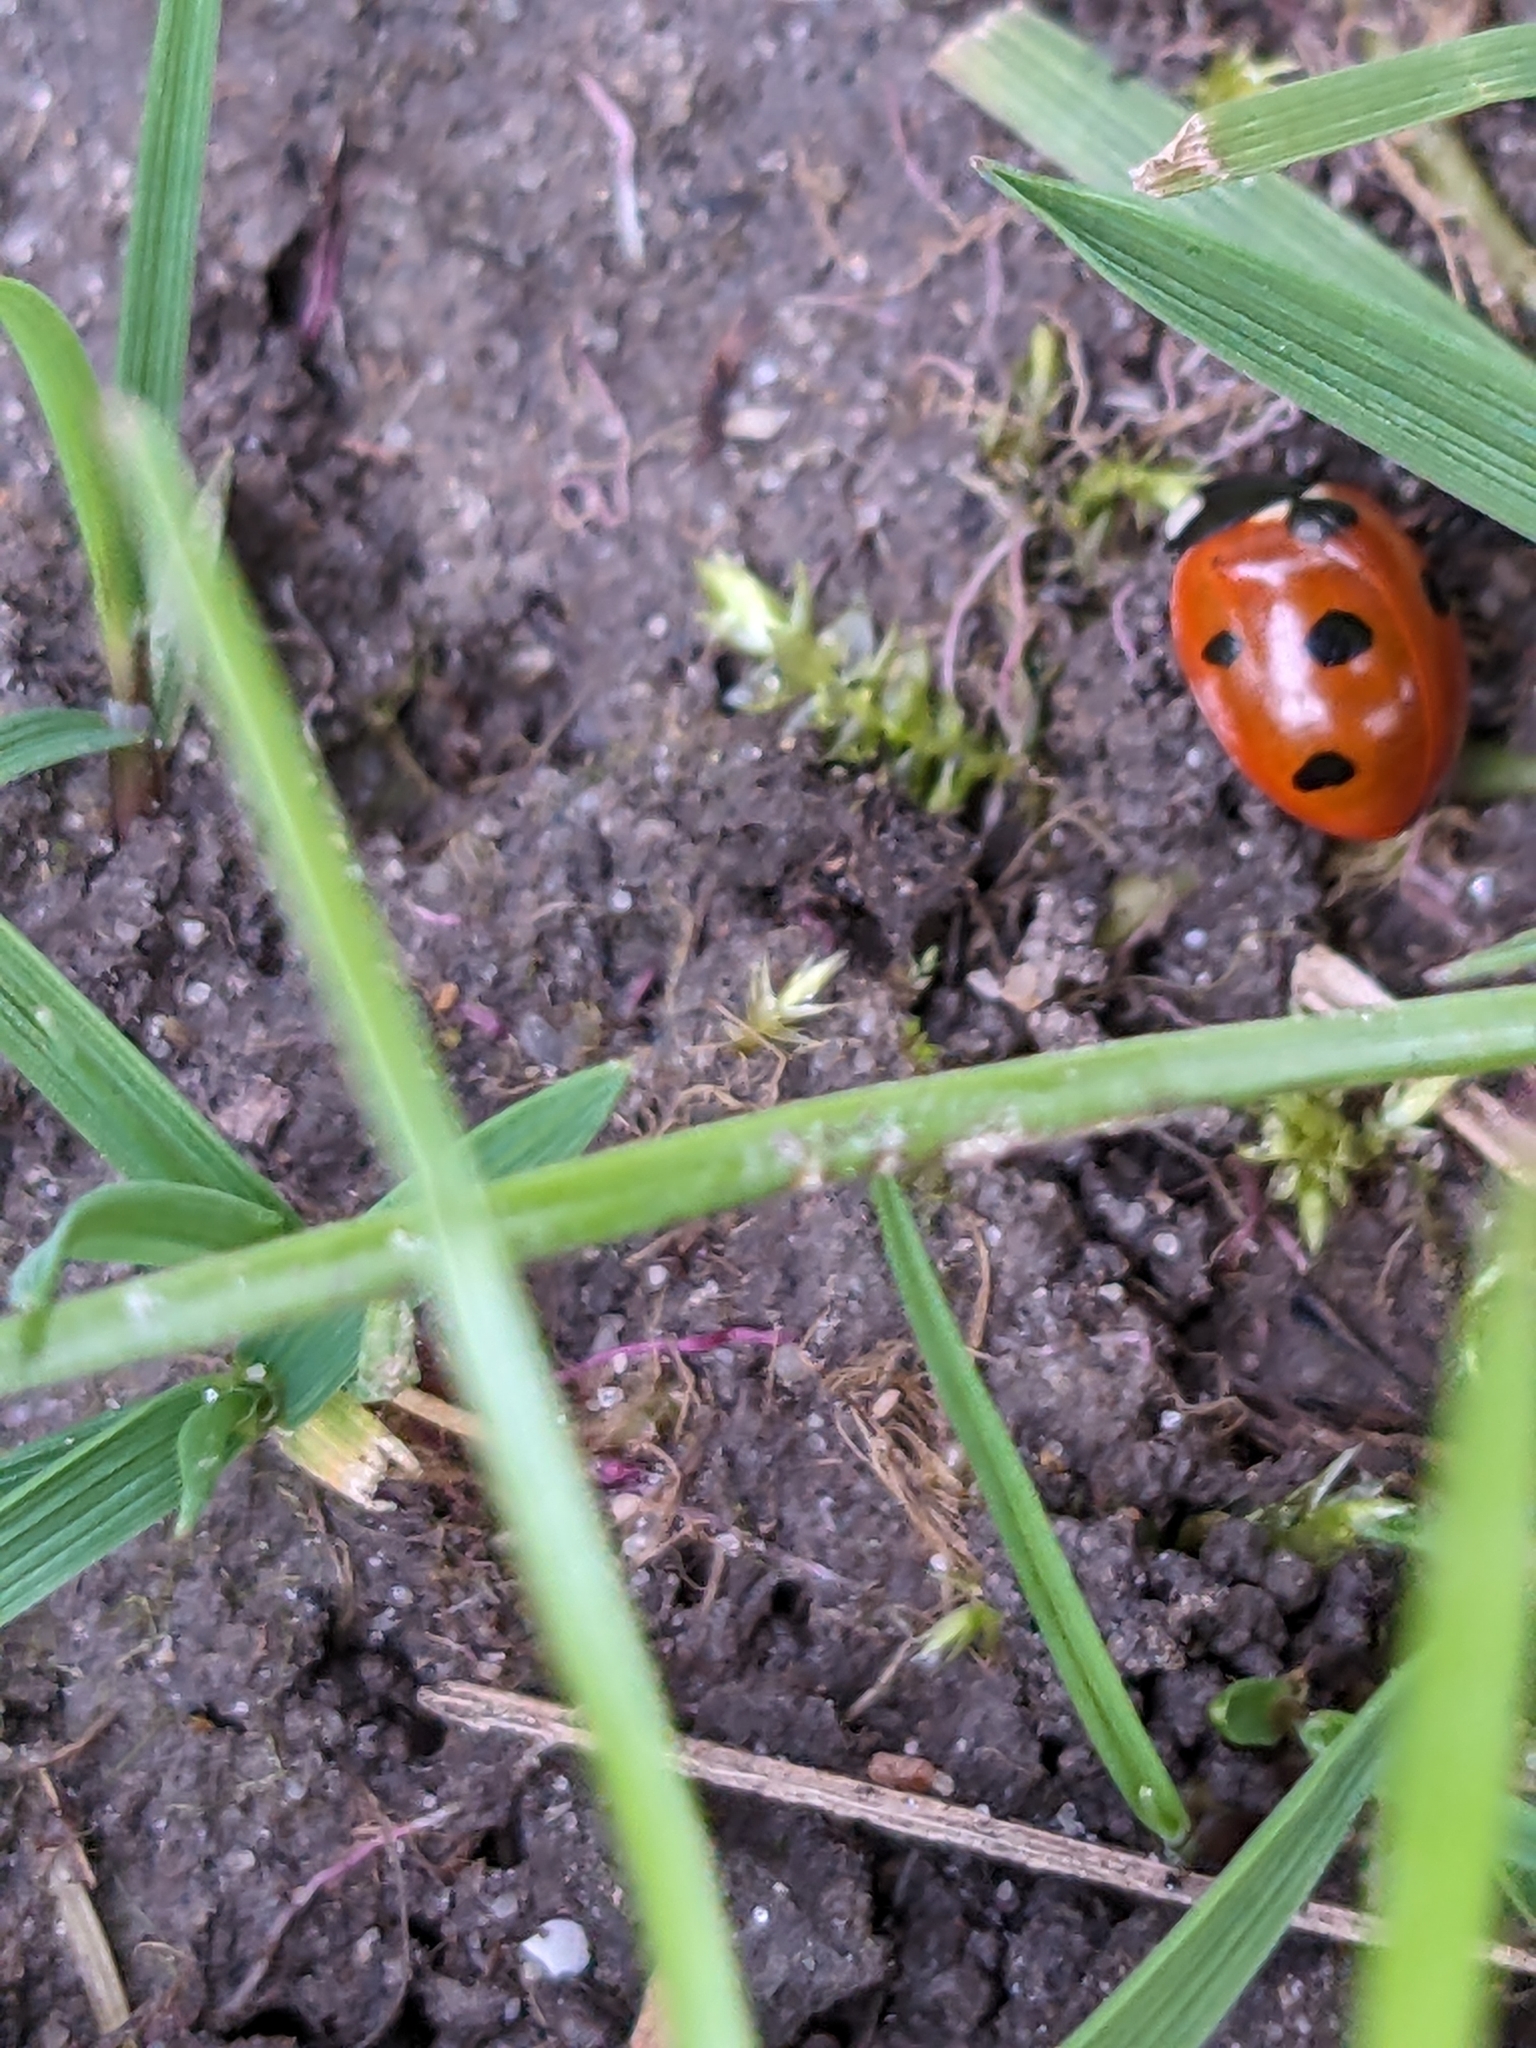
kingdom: Animalia
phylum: Arthropoda
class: Insecta
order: Coleoptera
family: Coccinellidae
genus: Coccinella
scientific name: Coccinella septempunctata
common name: Sevenspotted lady beetle
